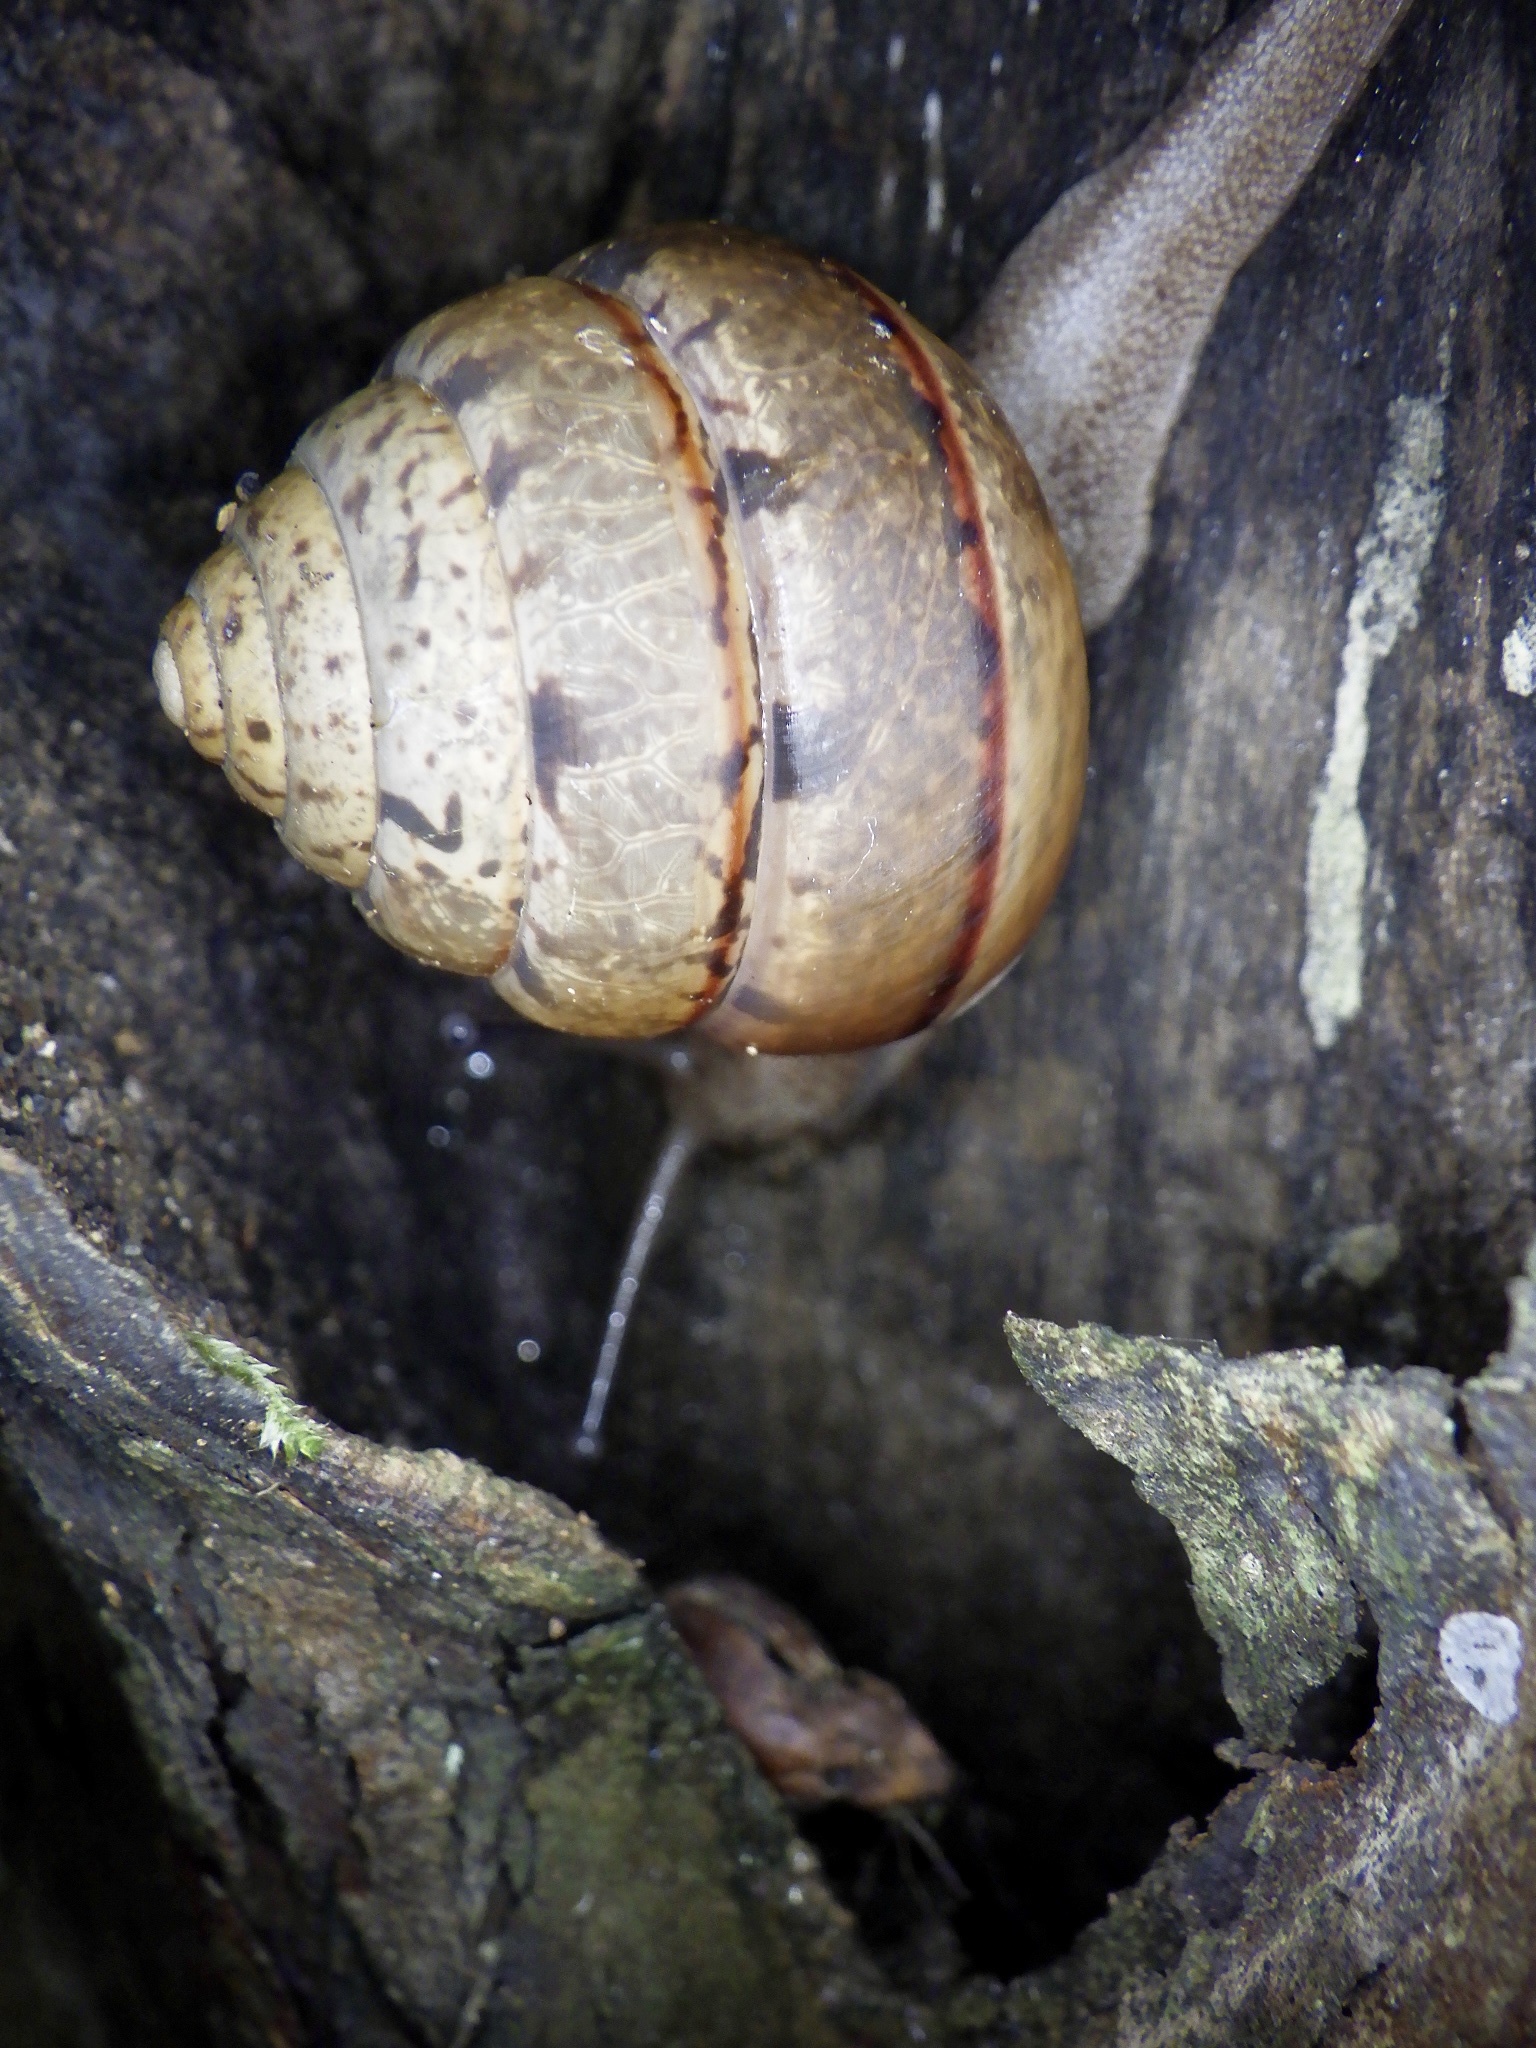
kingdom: Animalia
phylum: Mollusca
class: Gastropoda
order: Stylommatophora
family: Camaenidae
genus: Satsuma
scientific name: Satsuma papilliformis
